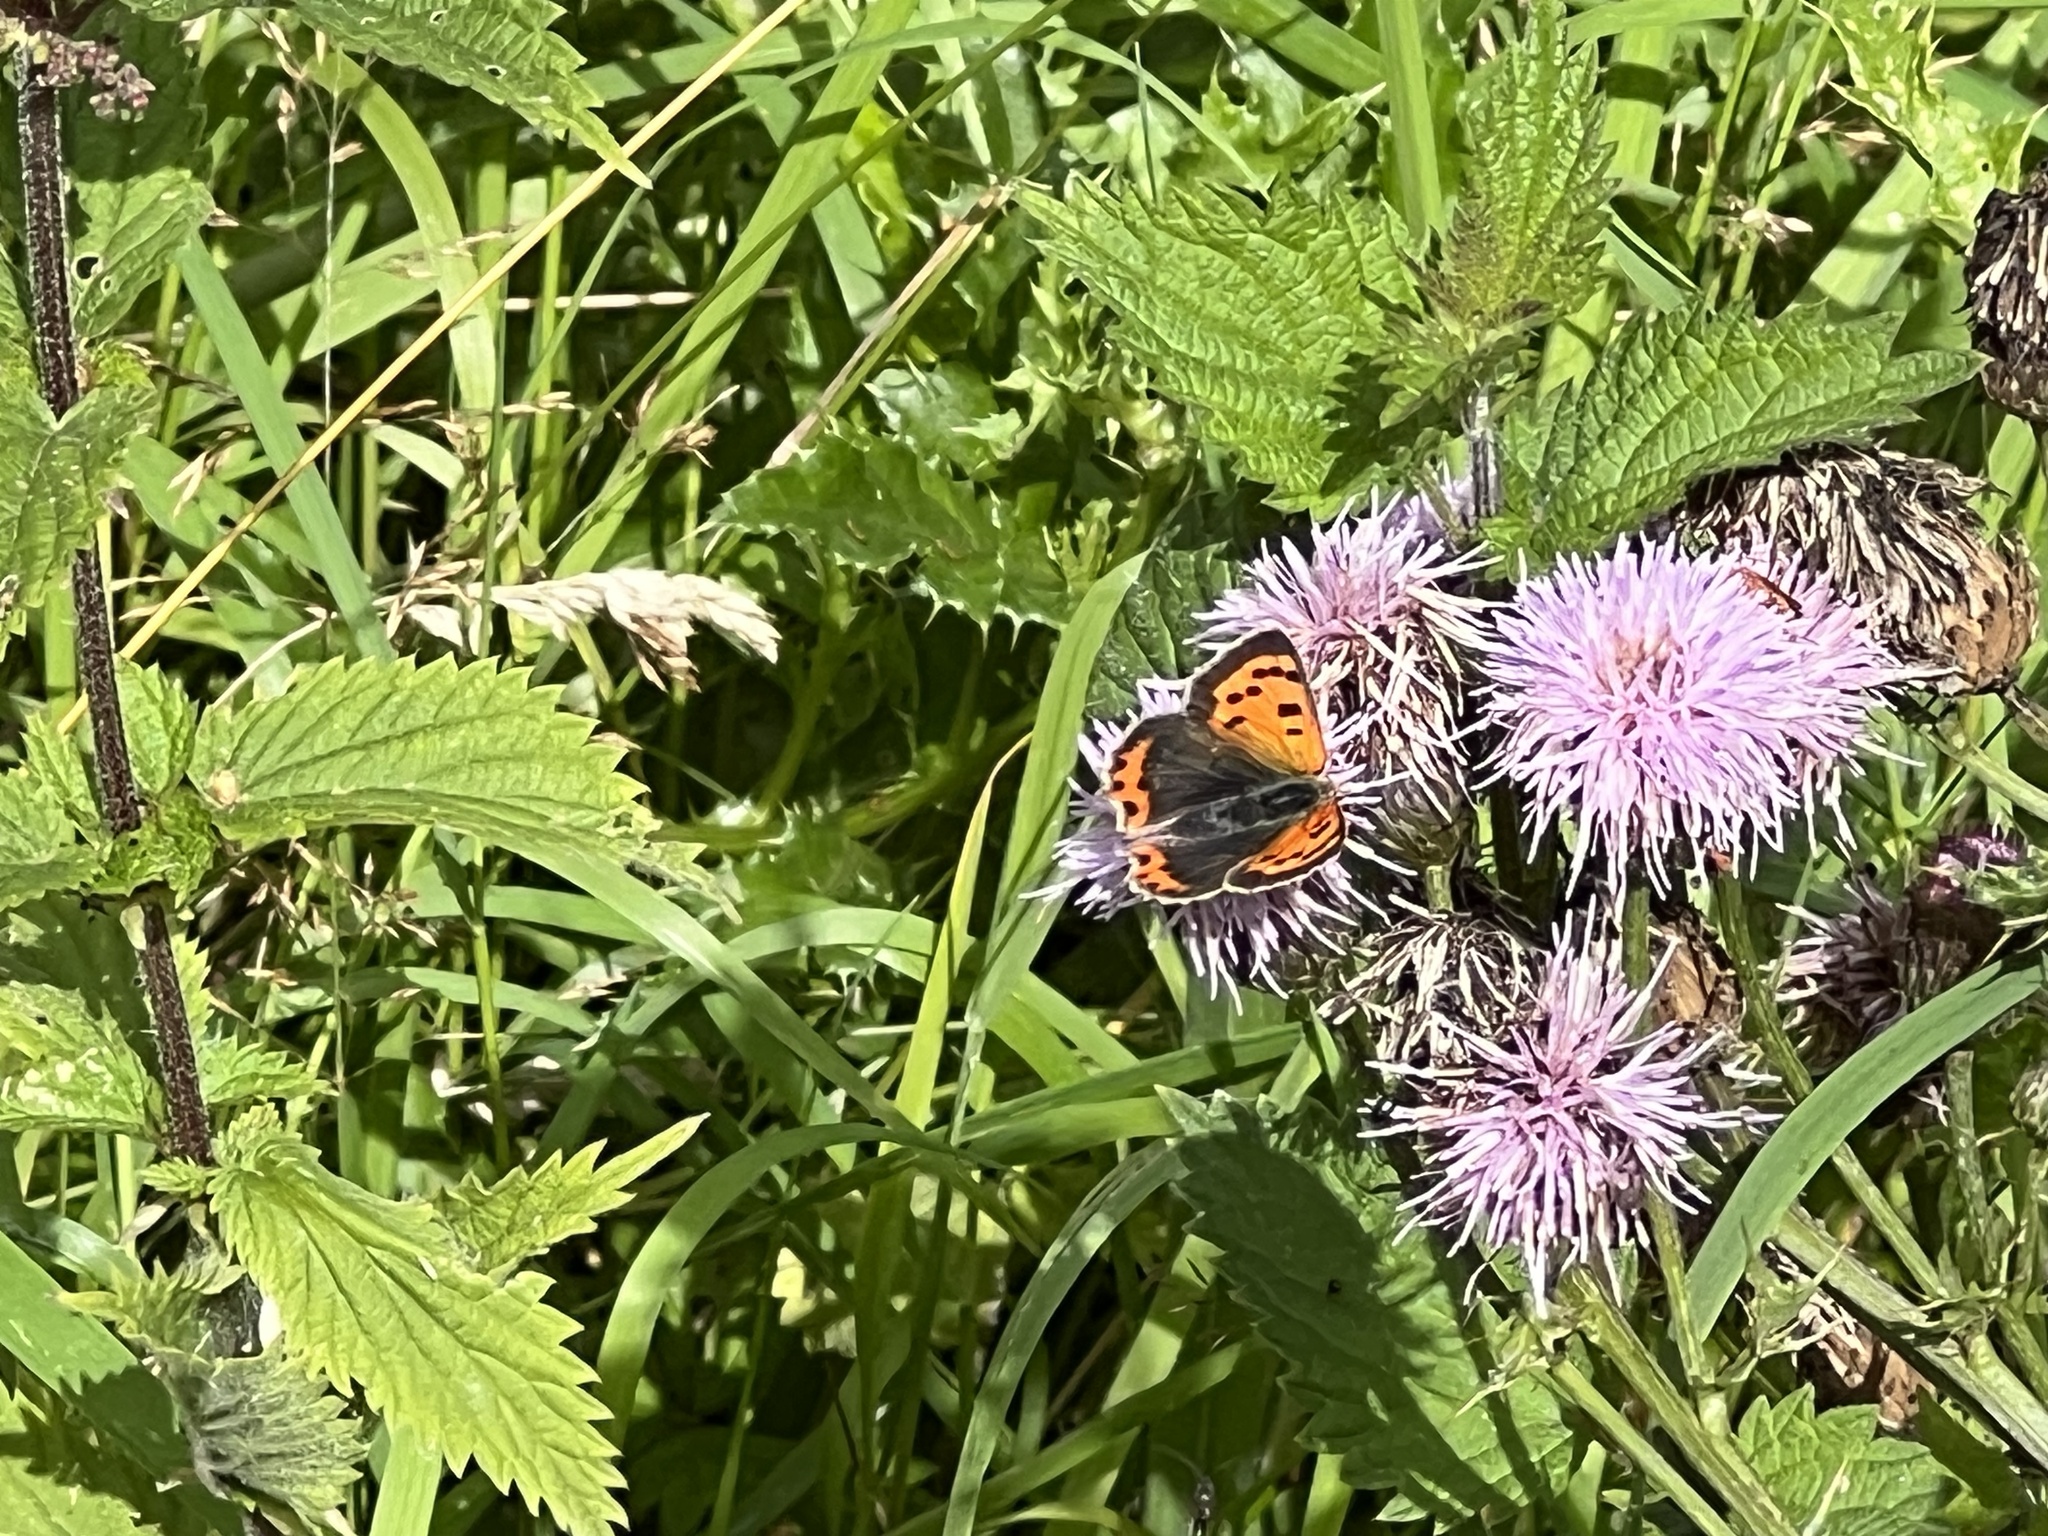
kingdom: Animalia
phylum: Arthropoda
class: Insecta
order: Lepidoptera
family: Lycaenidae
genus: Lycaena
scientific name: Lycaena phlaeas
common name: Small copper
